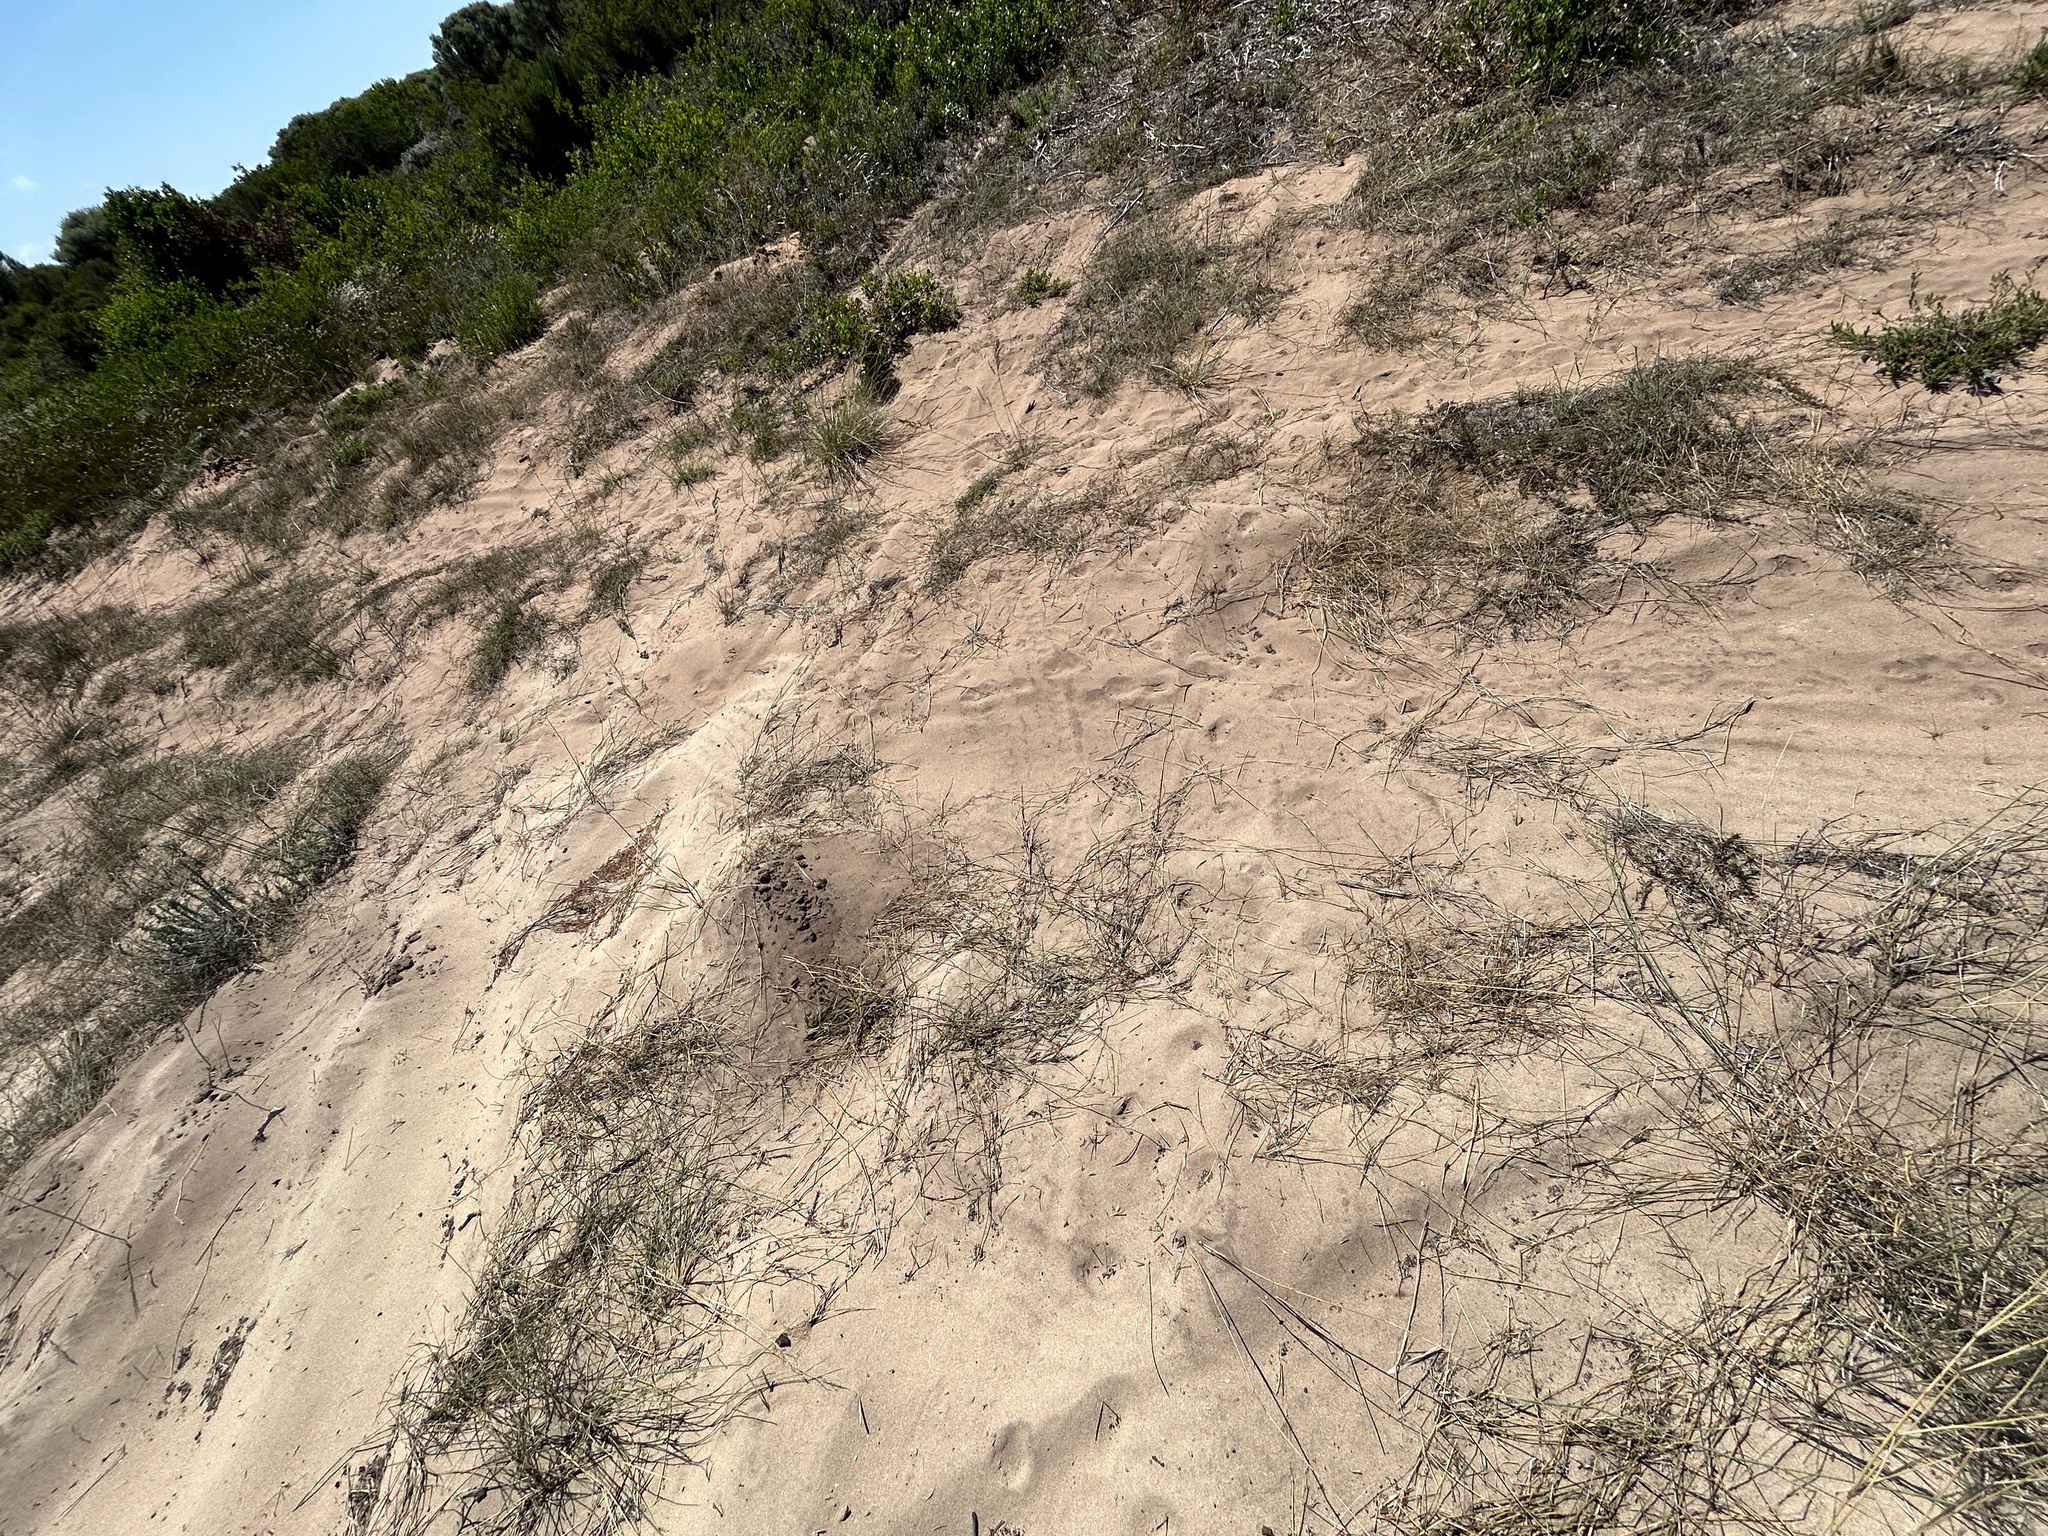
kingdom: Plantae
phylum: Tracheophyta
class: Magnoliopsida
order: Asterales
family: Asteraceae
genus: Oedera
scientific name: Oedera imbricata
